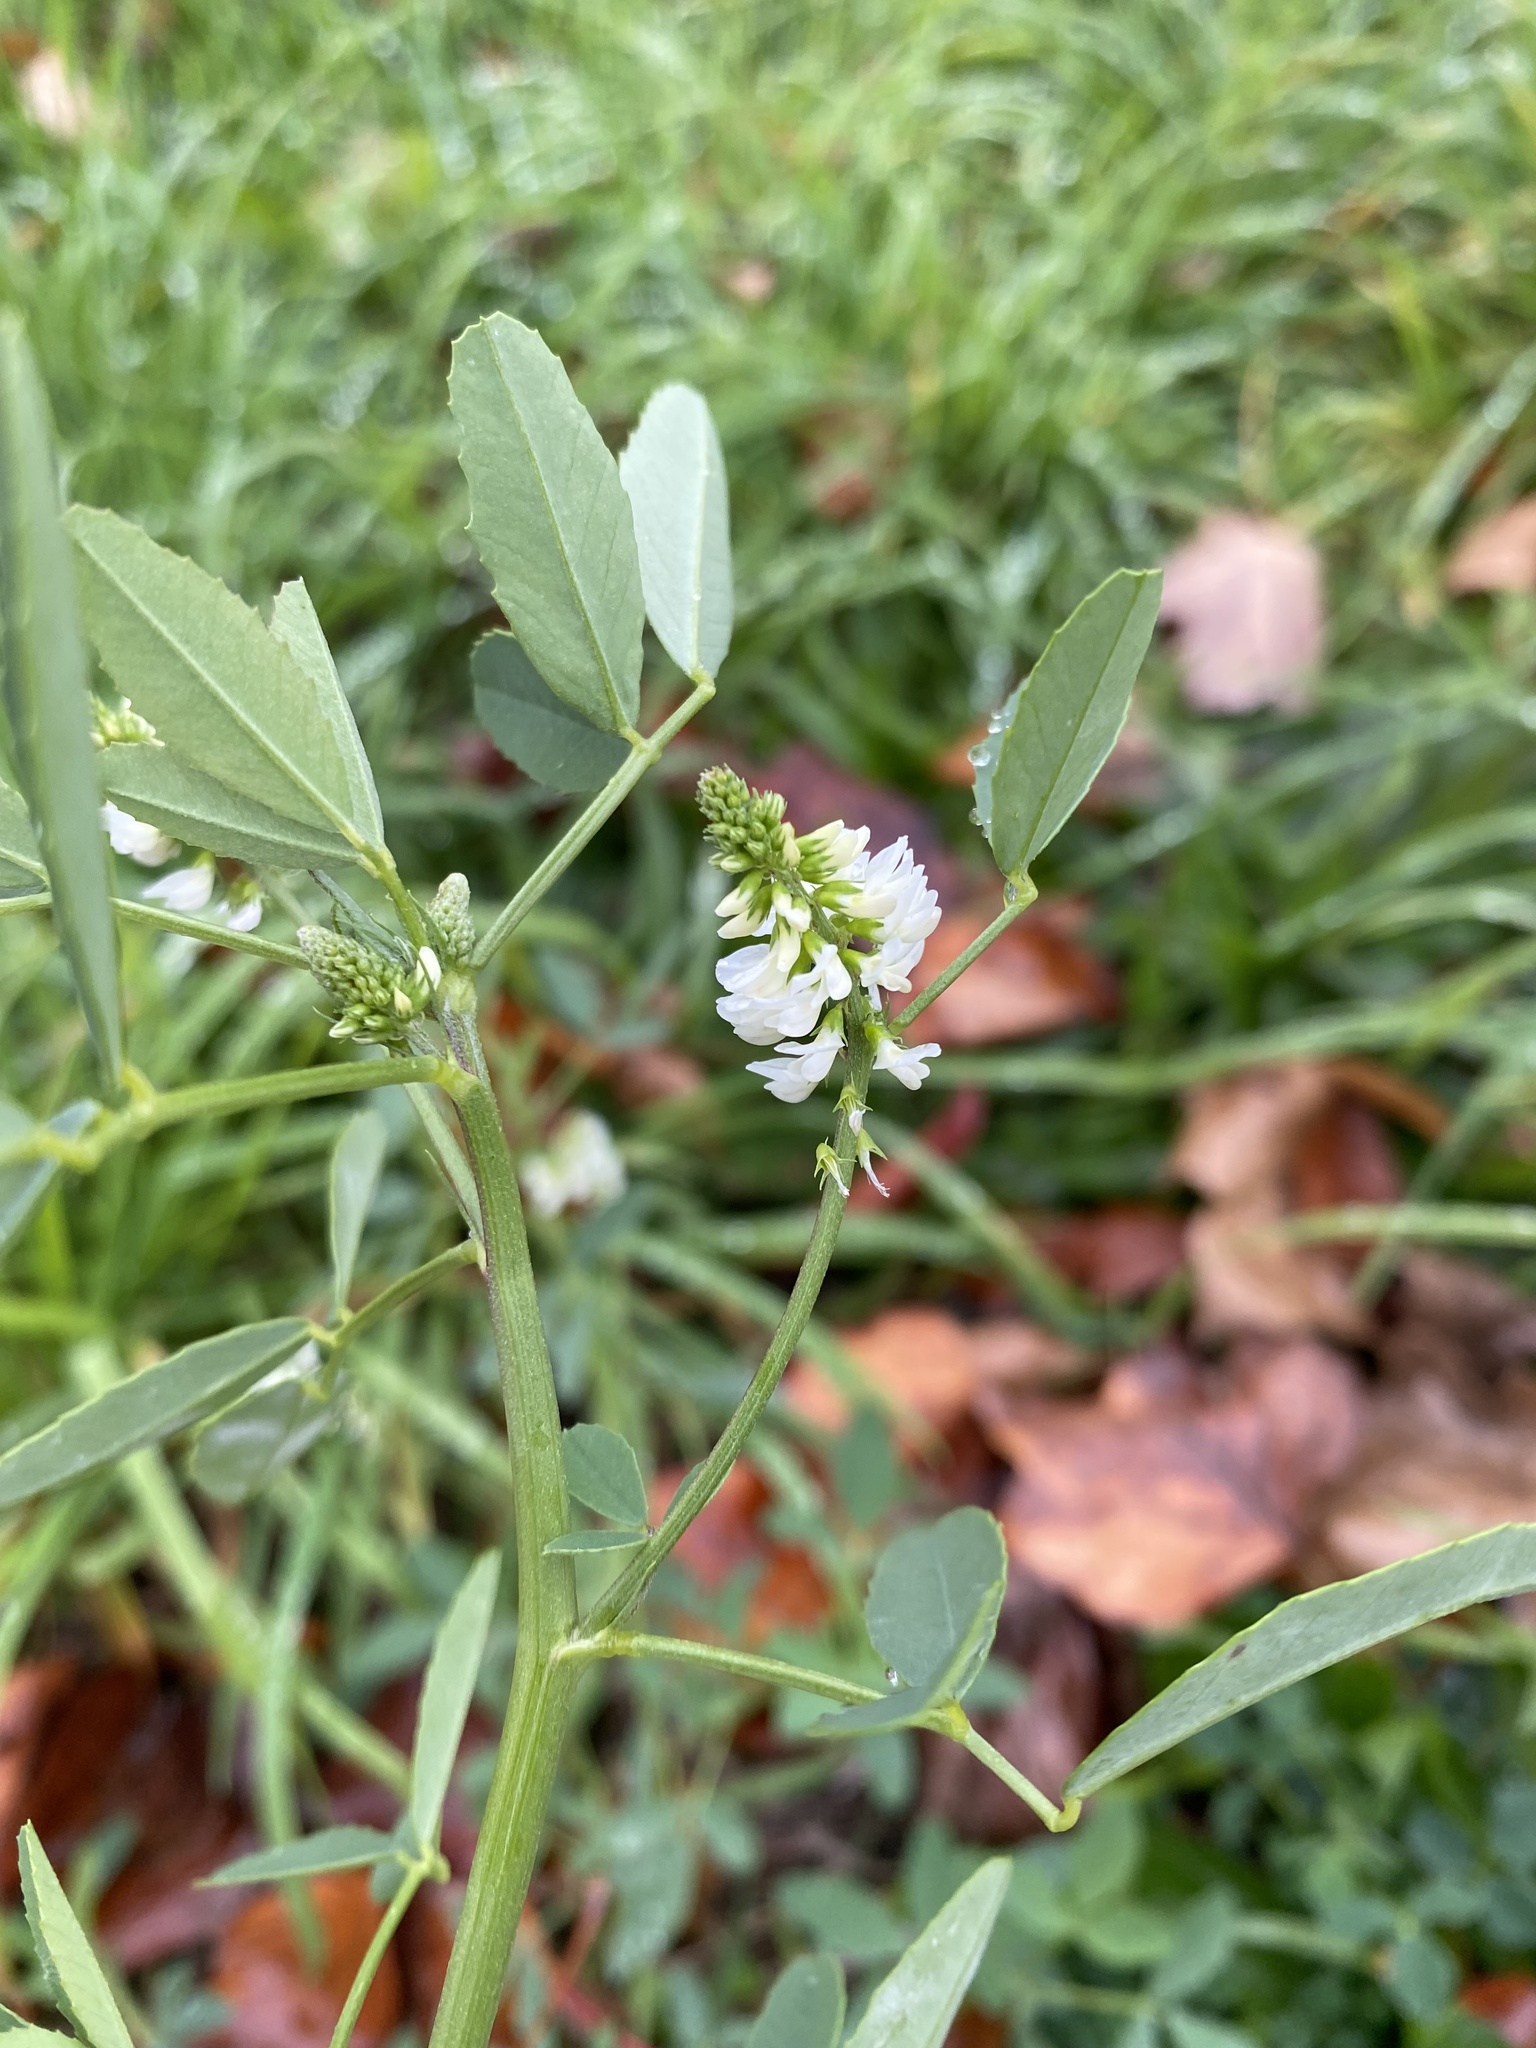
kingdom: Plantae
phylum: Tracheophyta
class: Magnoliopsida
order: Fabales
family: Fabaceae
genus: Melilotus
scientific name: Melilotus albus
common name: White melilot
